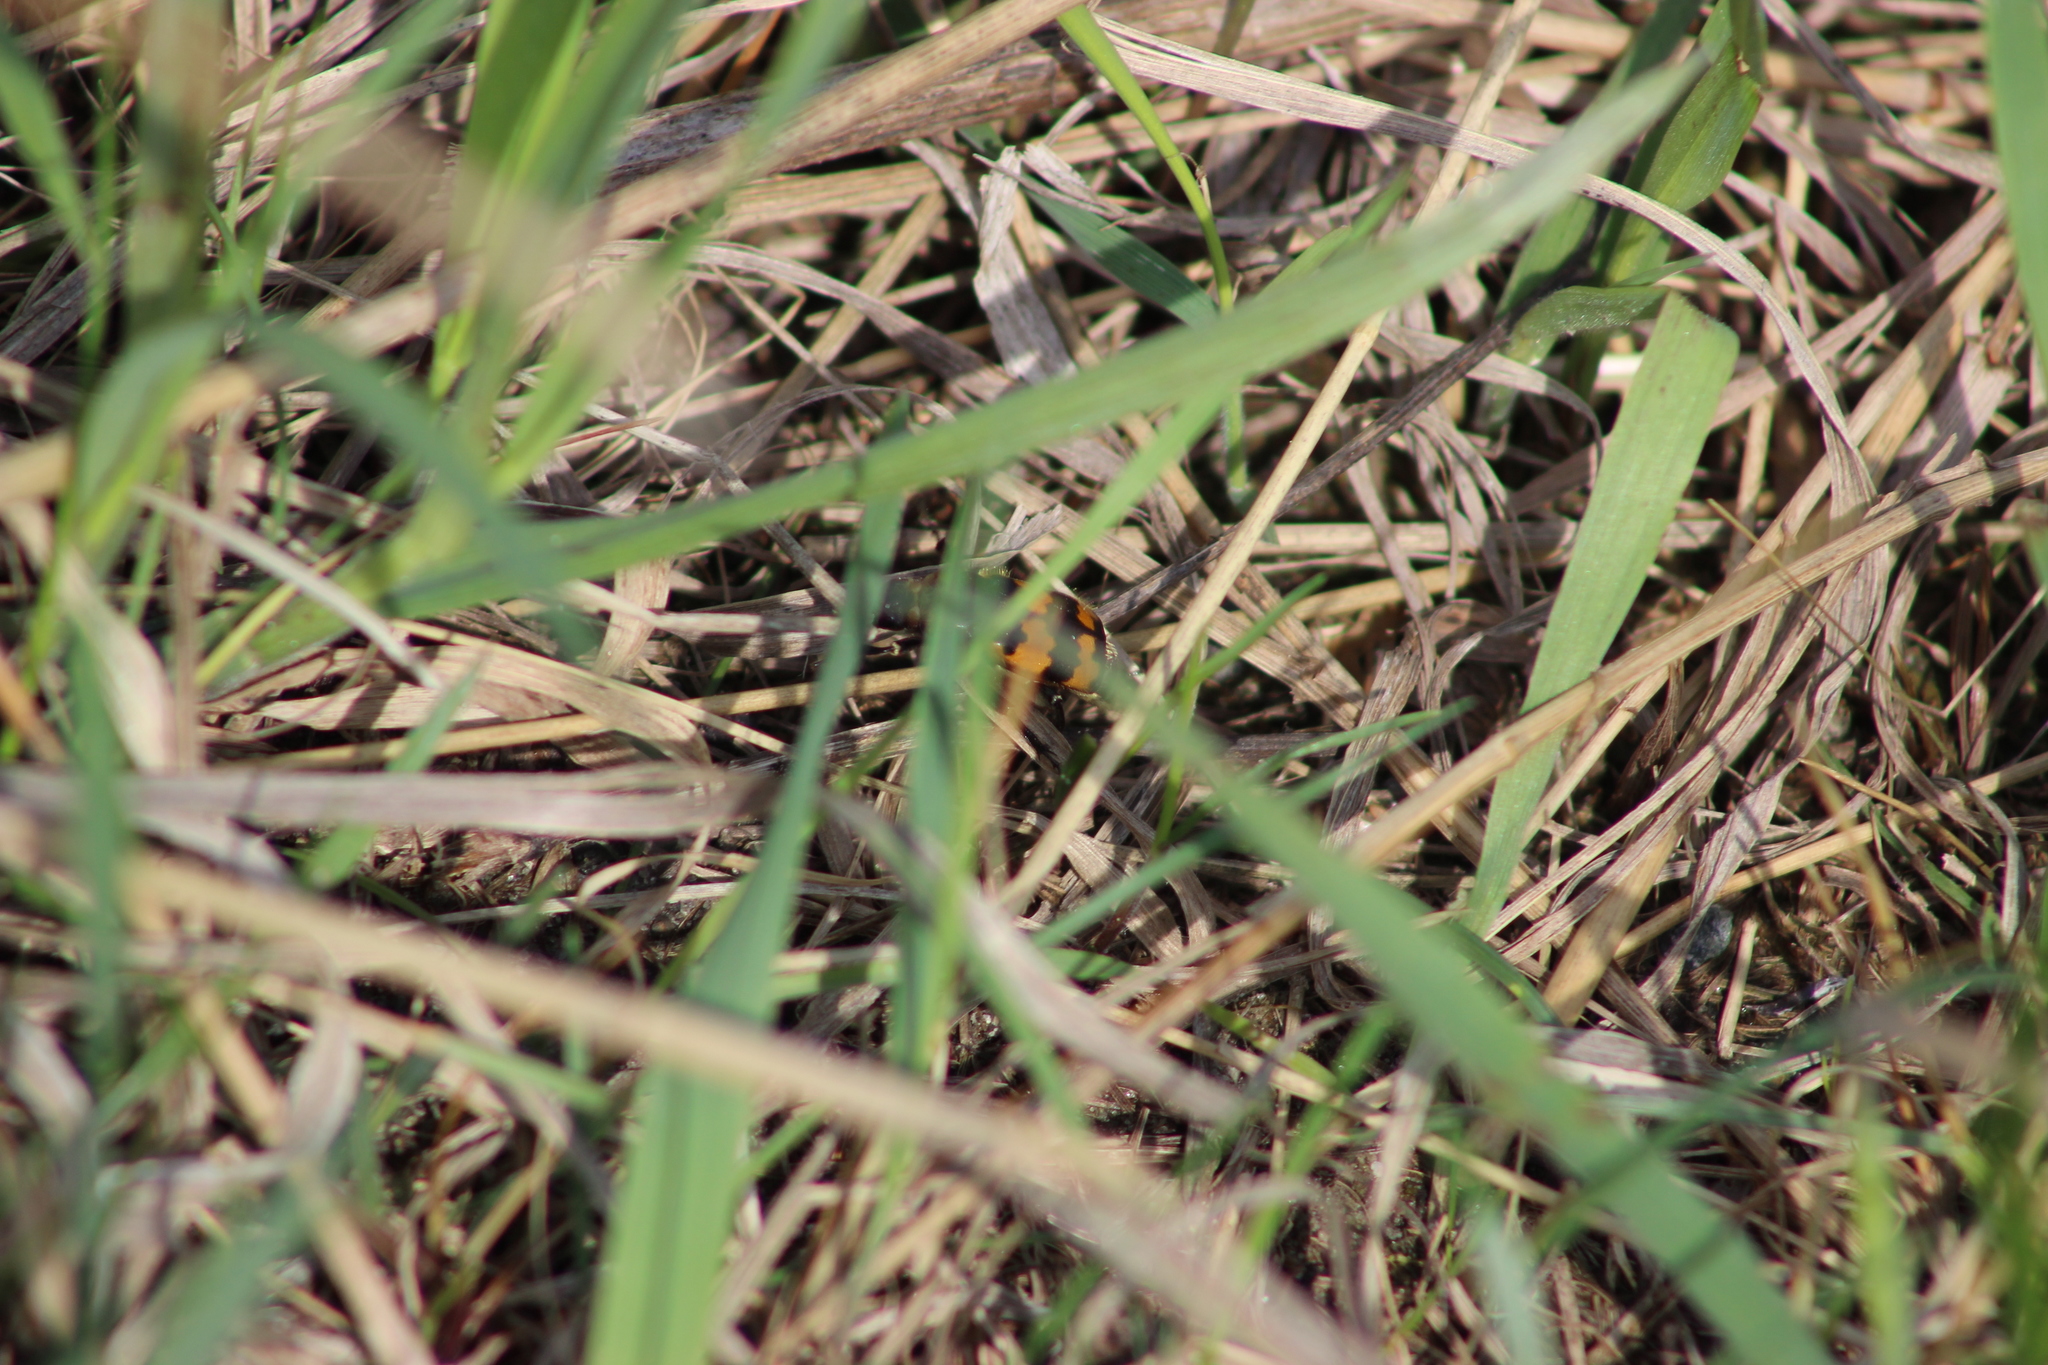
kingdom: Animalia
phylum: Arthropoda
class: Insecta
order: Coleoptera
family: Staphylinidae
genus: Nicrophorus
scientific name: Nicrophorus vespillo
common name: Common burying beetle
